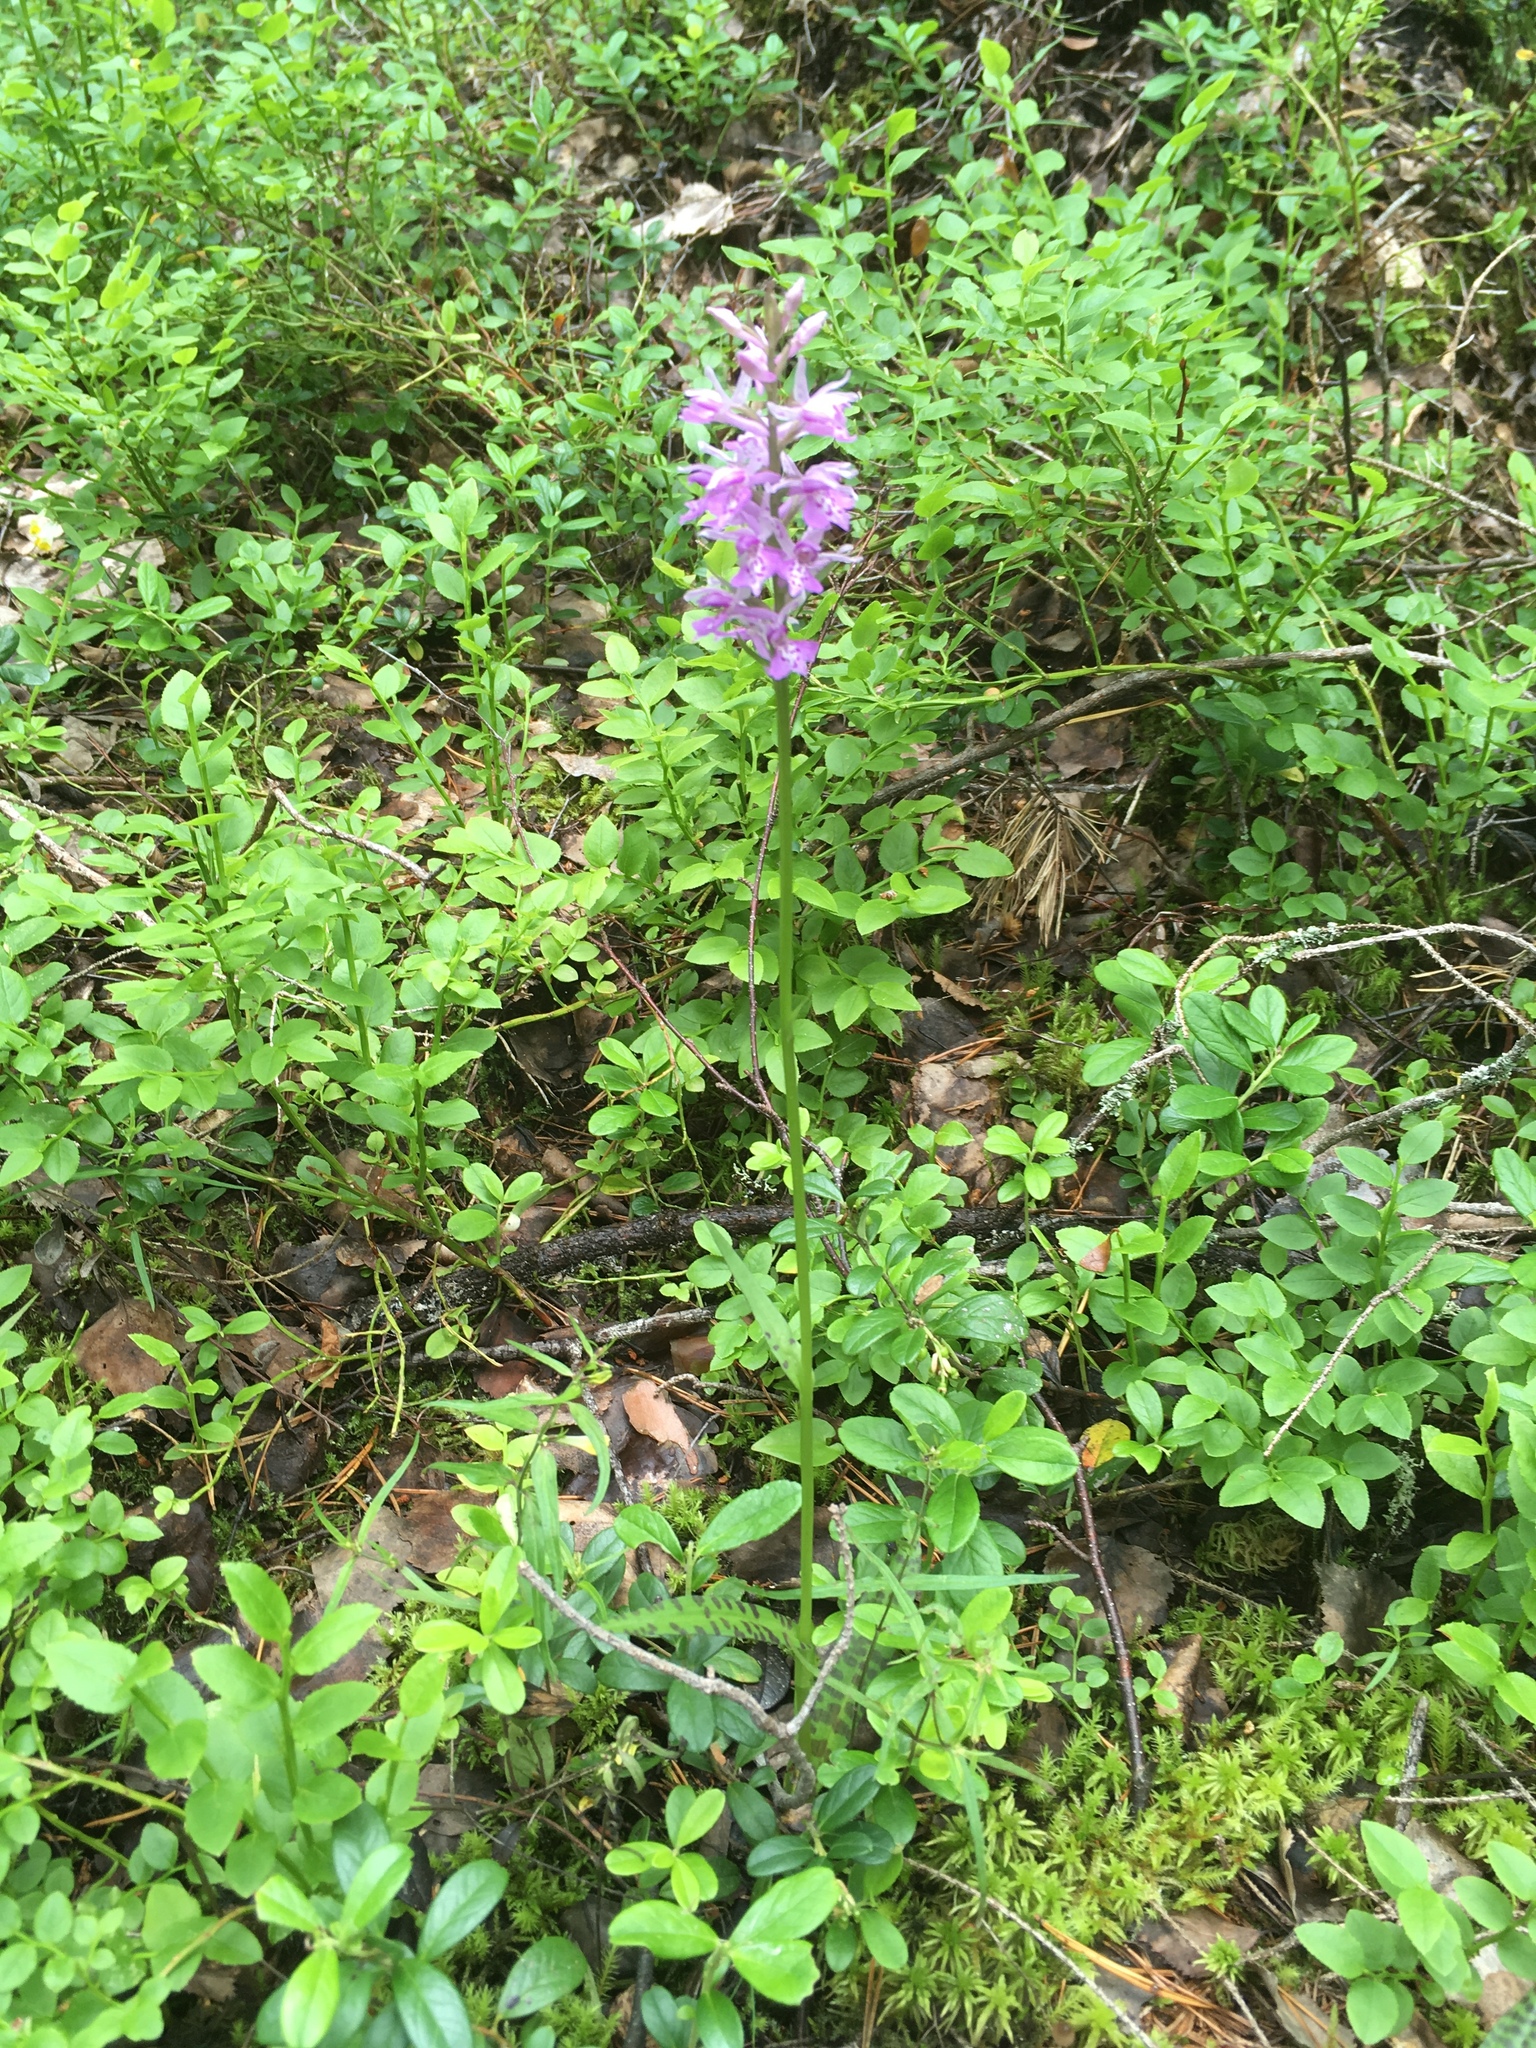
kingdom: Plantae
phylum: Tracheophyta
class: Liliopsida
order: Asparagales
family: Orchidaceae
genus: Dactylorhiza
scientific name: Dactylorhiza maculata
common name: Heath spotted-orchid
